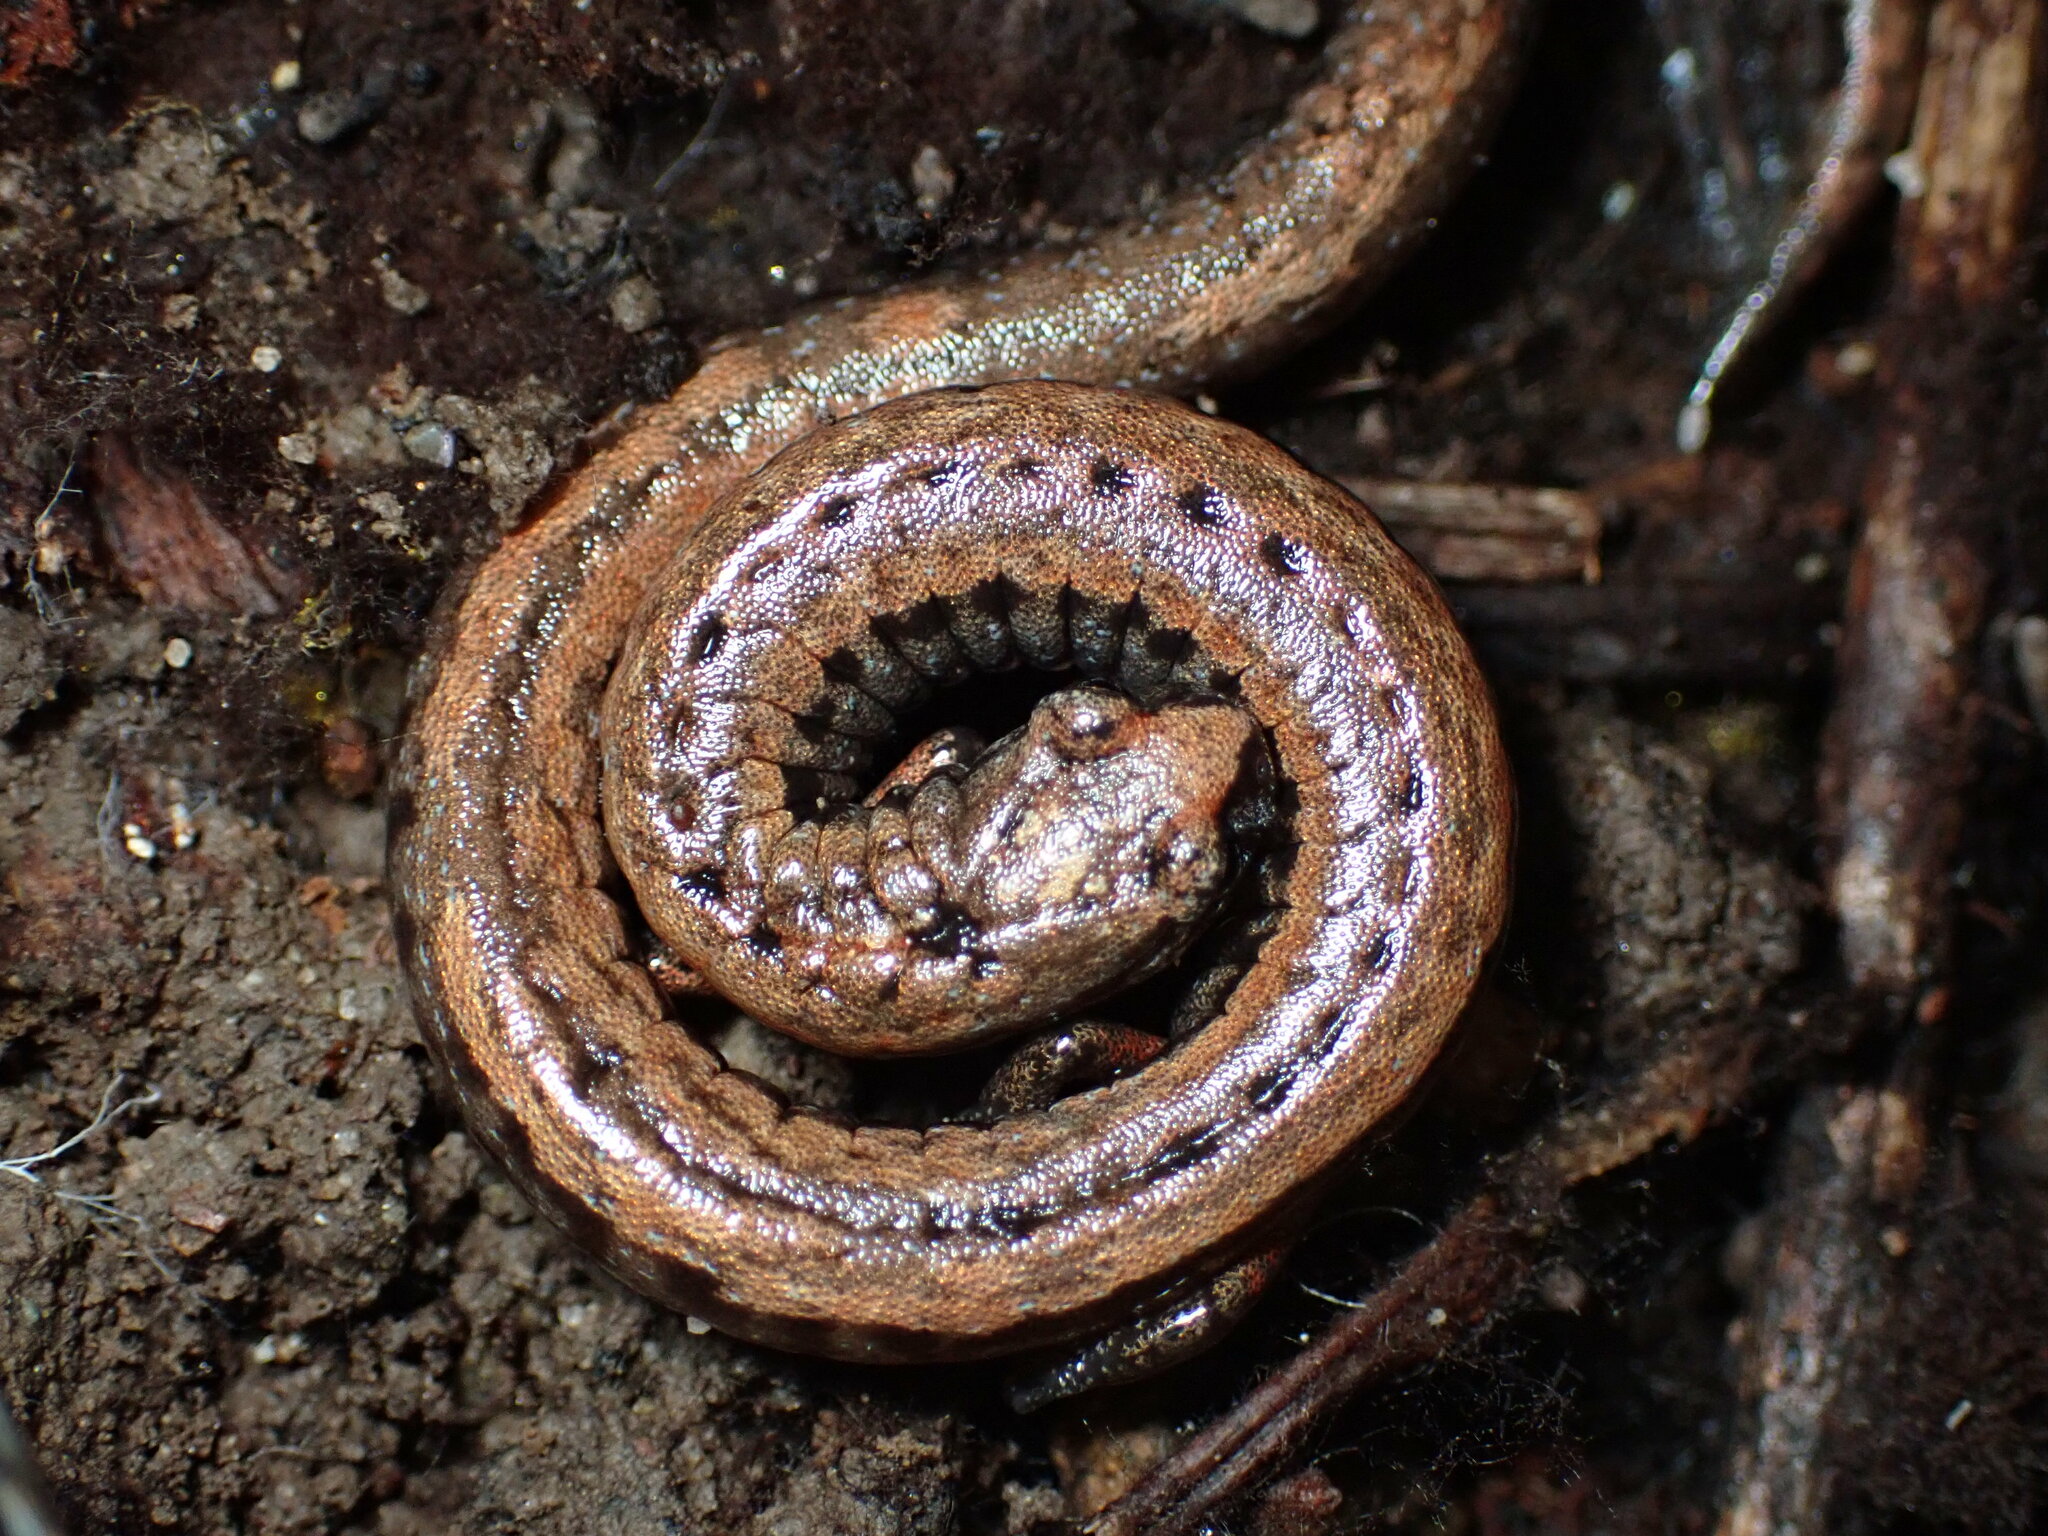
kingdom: Animalia
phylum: Chordata
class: Amphibia
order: Caudata
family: Plethodontidae
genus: Batrachoseps
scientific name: Batrachoseps attenuatus
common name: California slender salamander
